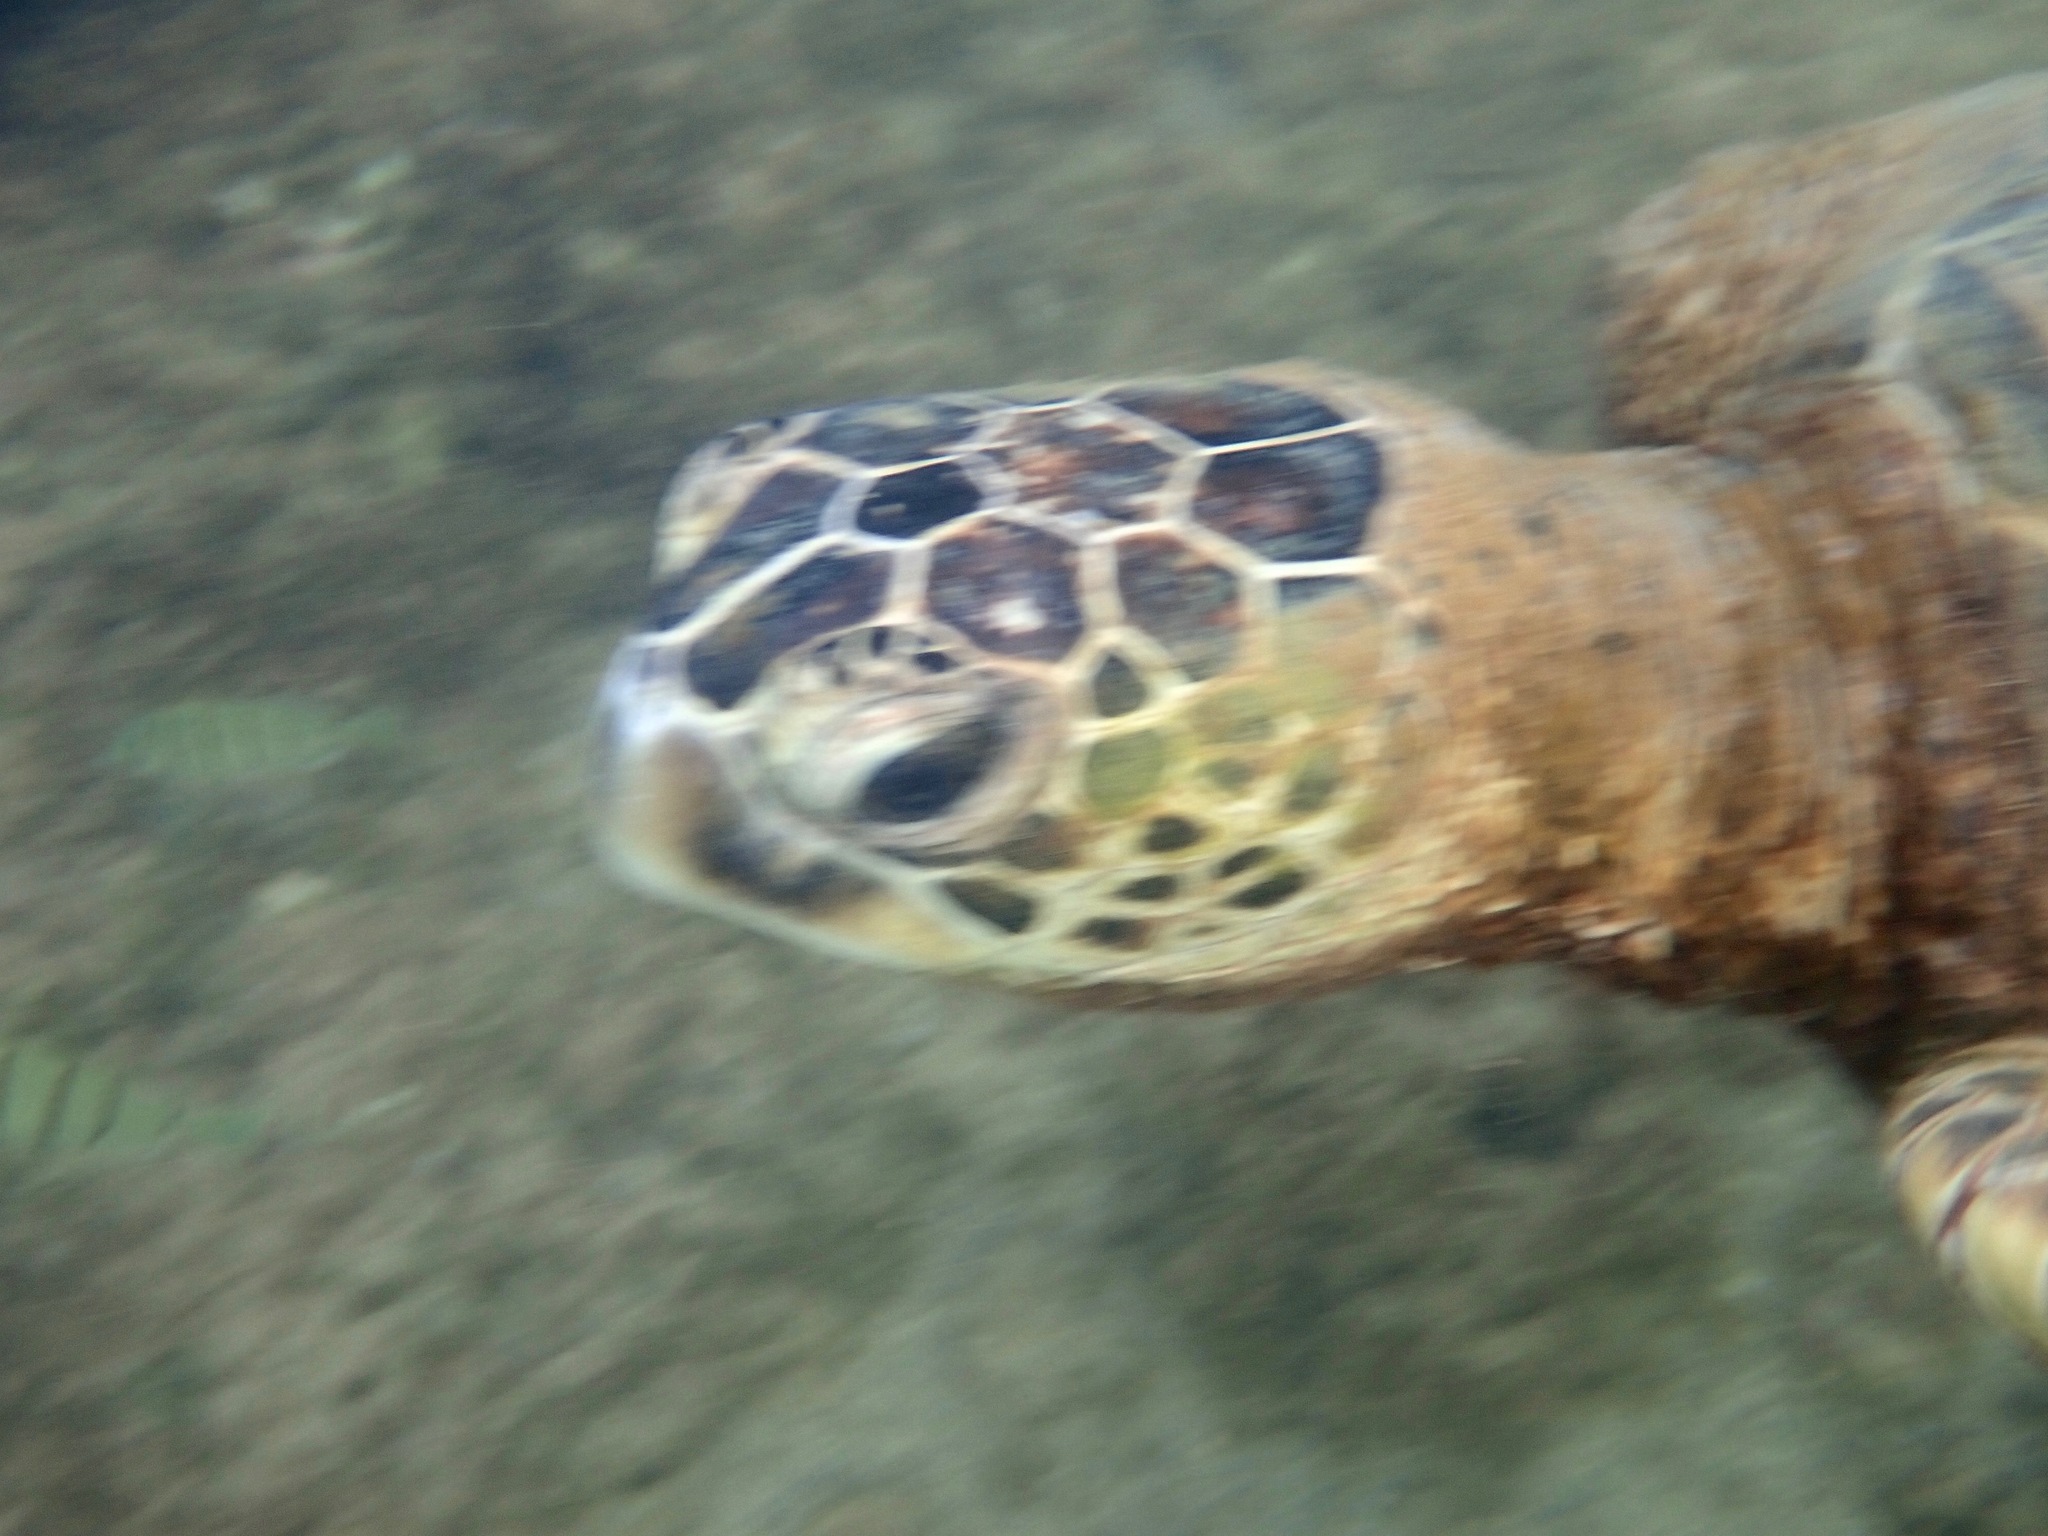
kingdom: Animalia
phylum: Chordata
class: Testudines
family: Cheloniidae
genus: Chelonia
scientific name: Chelonia mydas
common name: Green turtle
